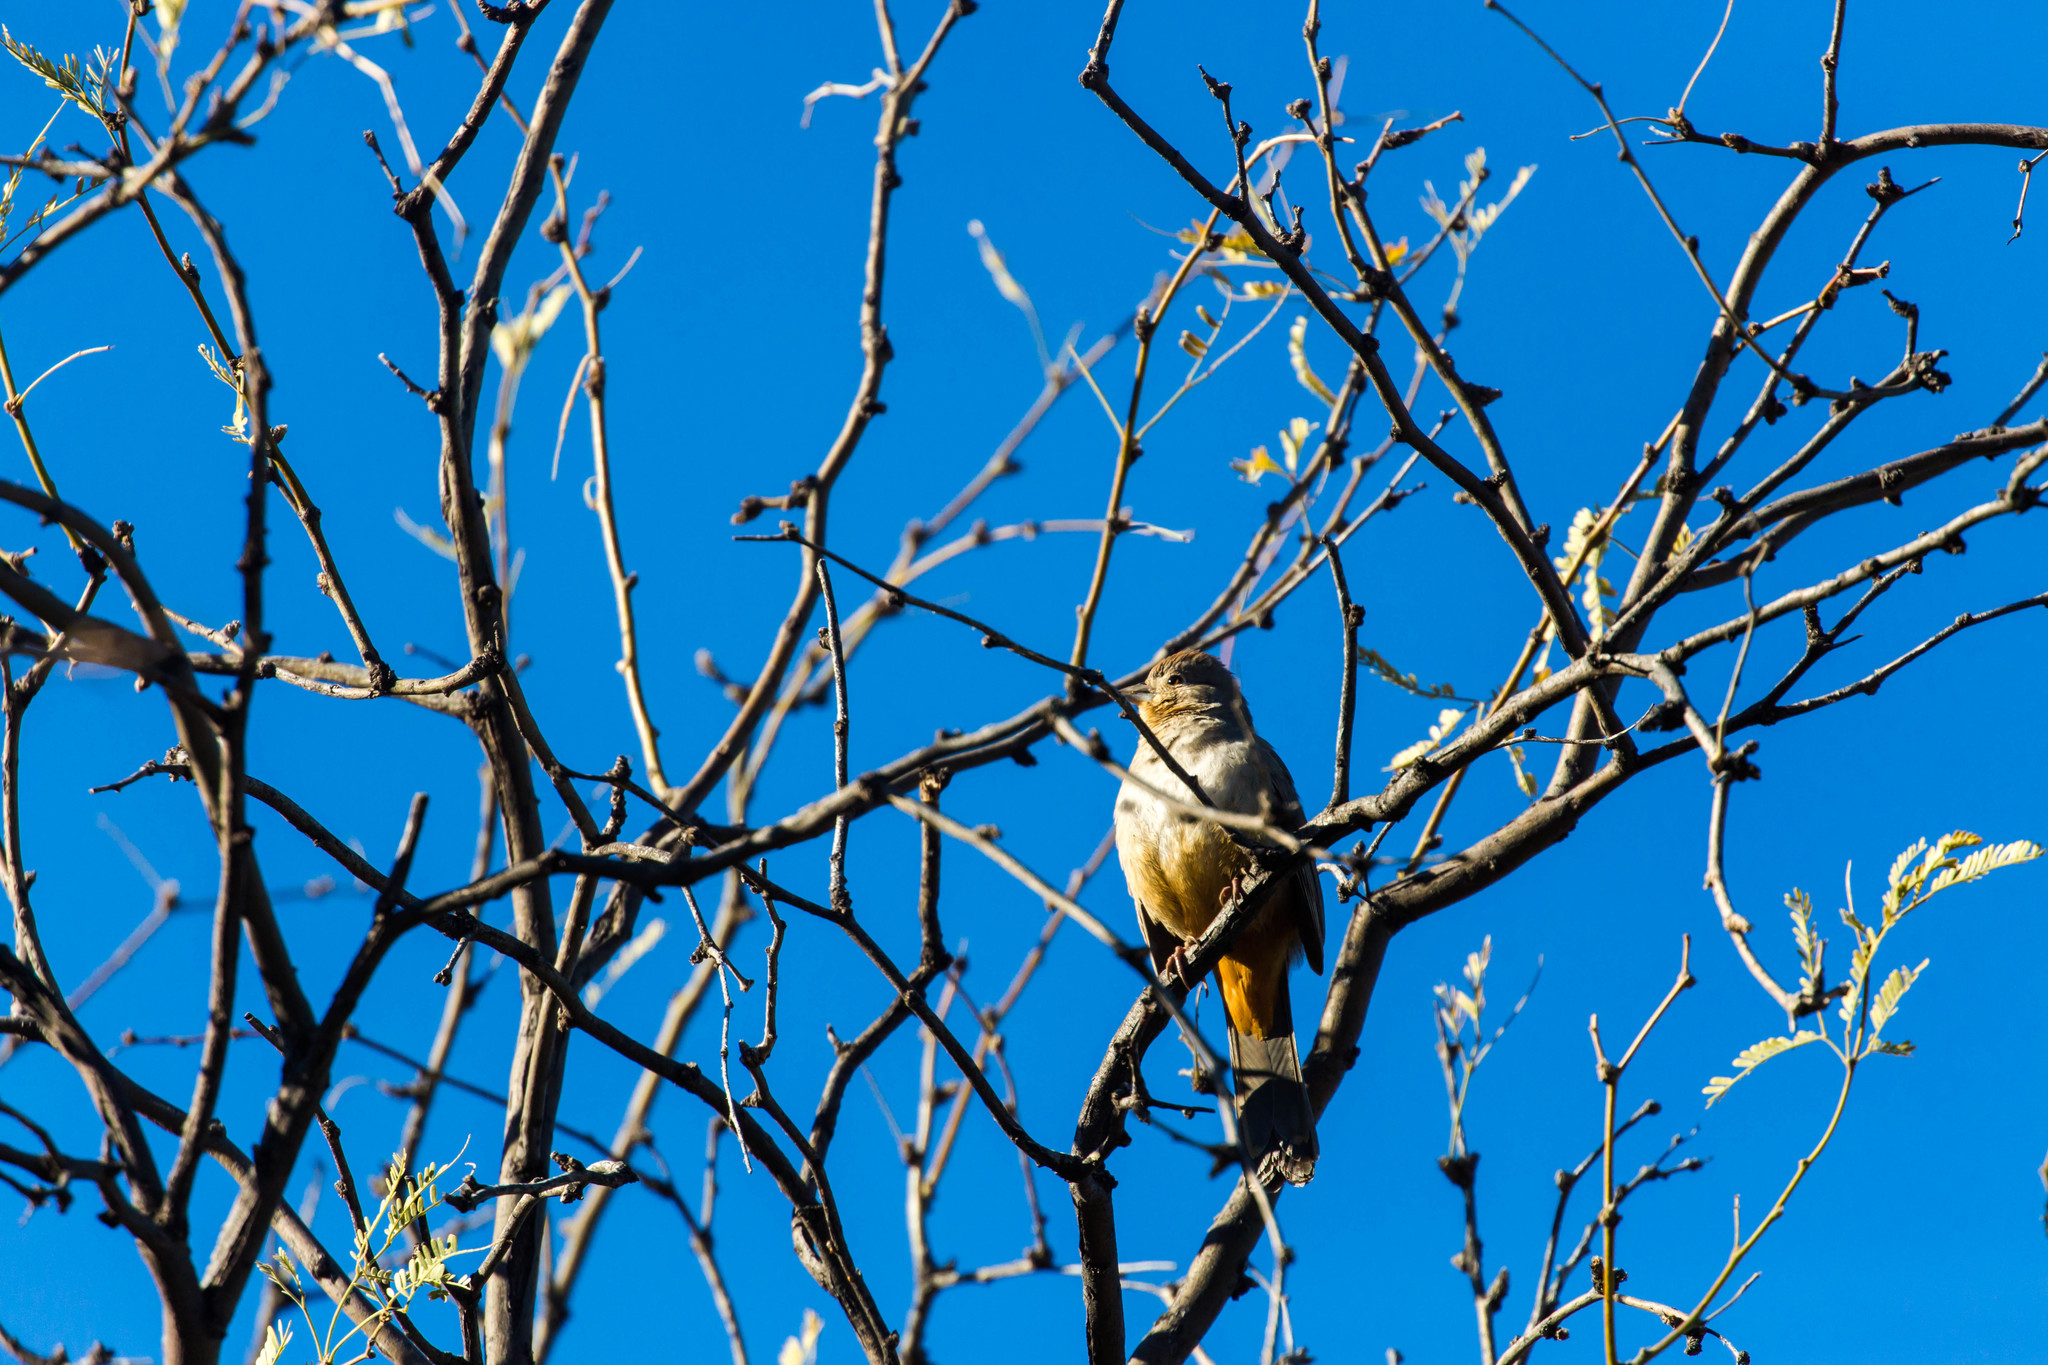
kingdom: Animalia
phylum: Chordata
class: Aves
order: Passeriformes
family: Passerellidae
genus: Melozone
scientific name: Melozone fusca
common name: Canyon towhee
